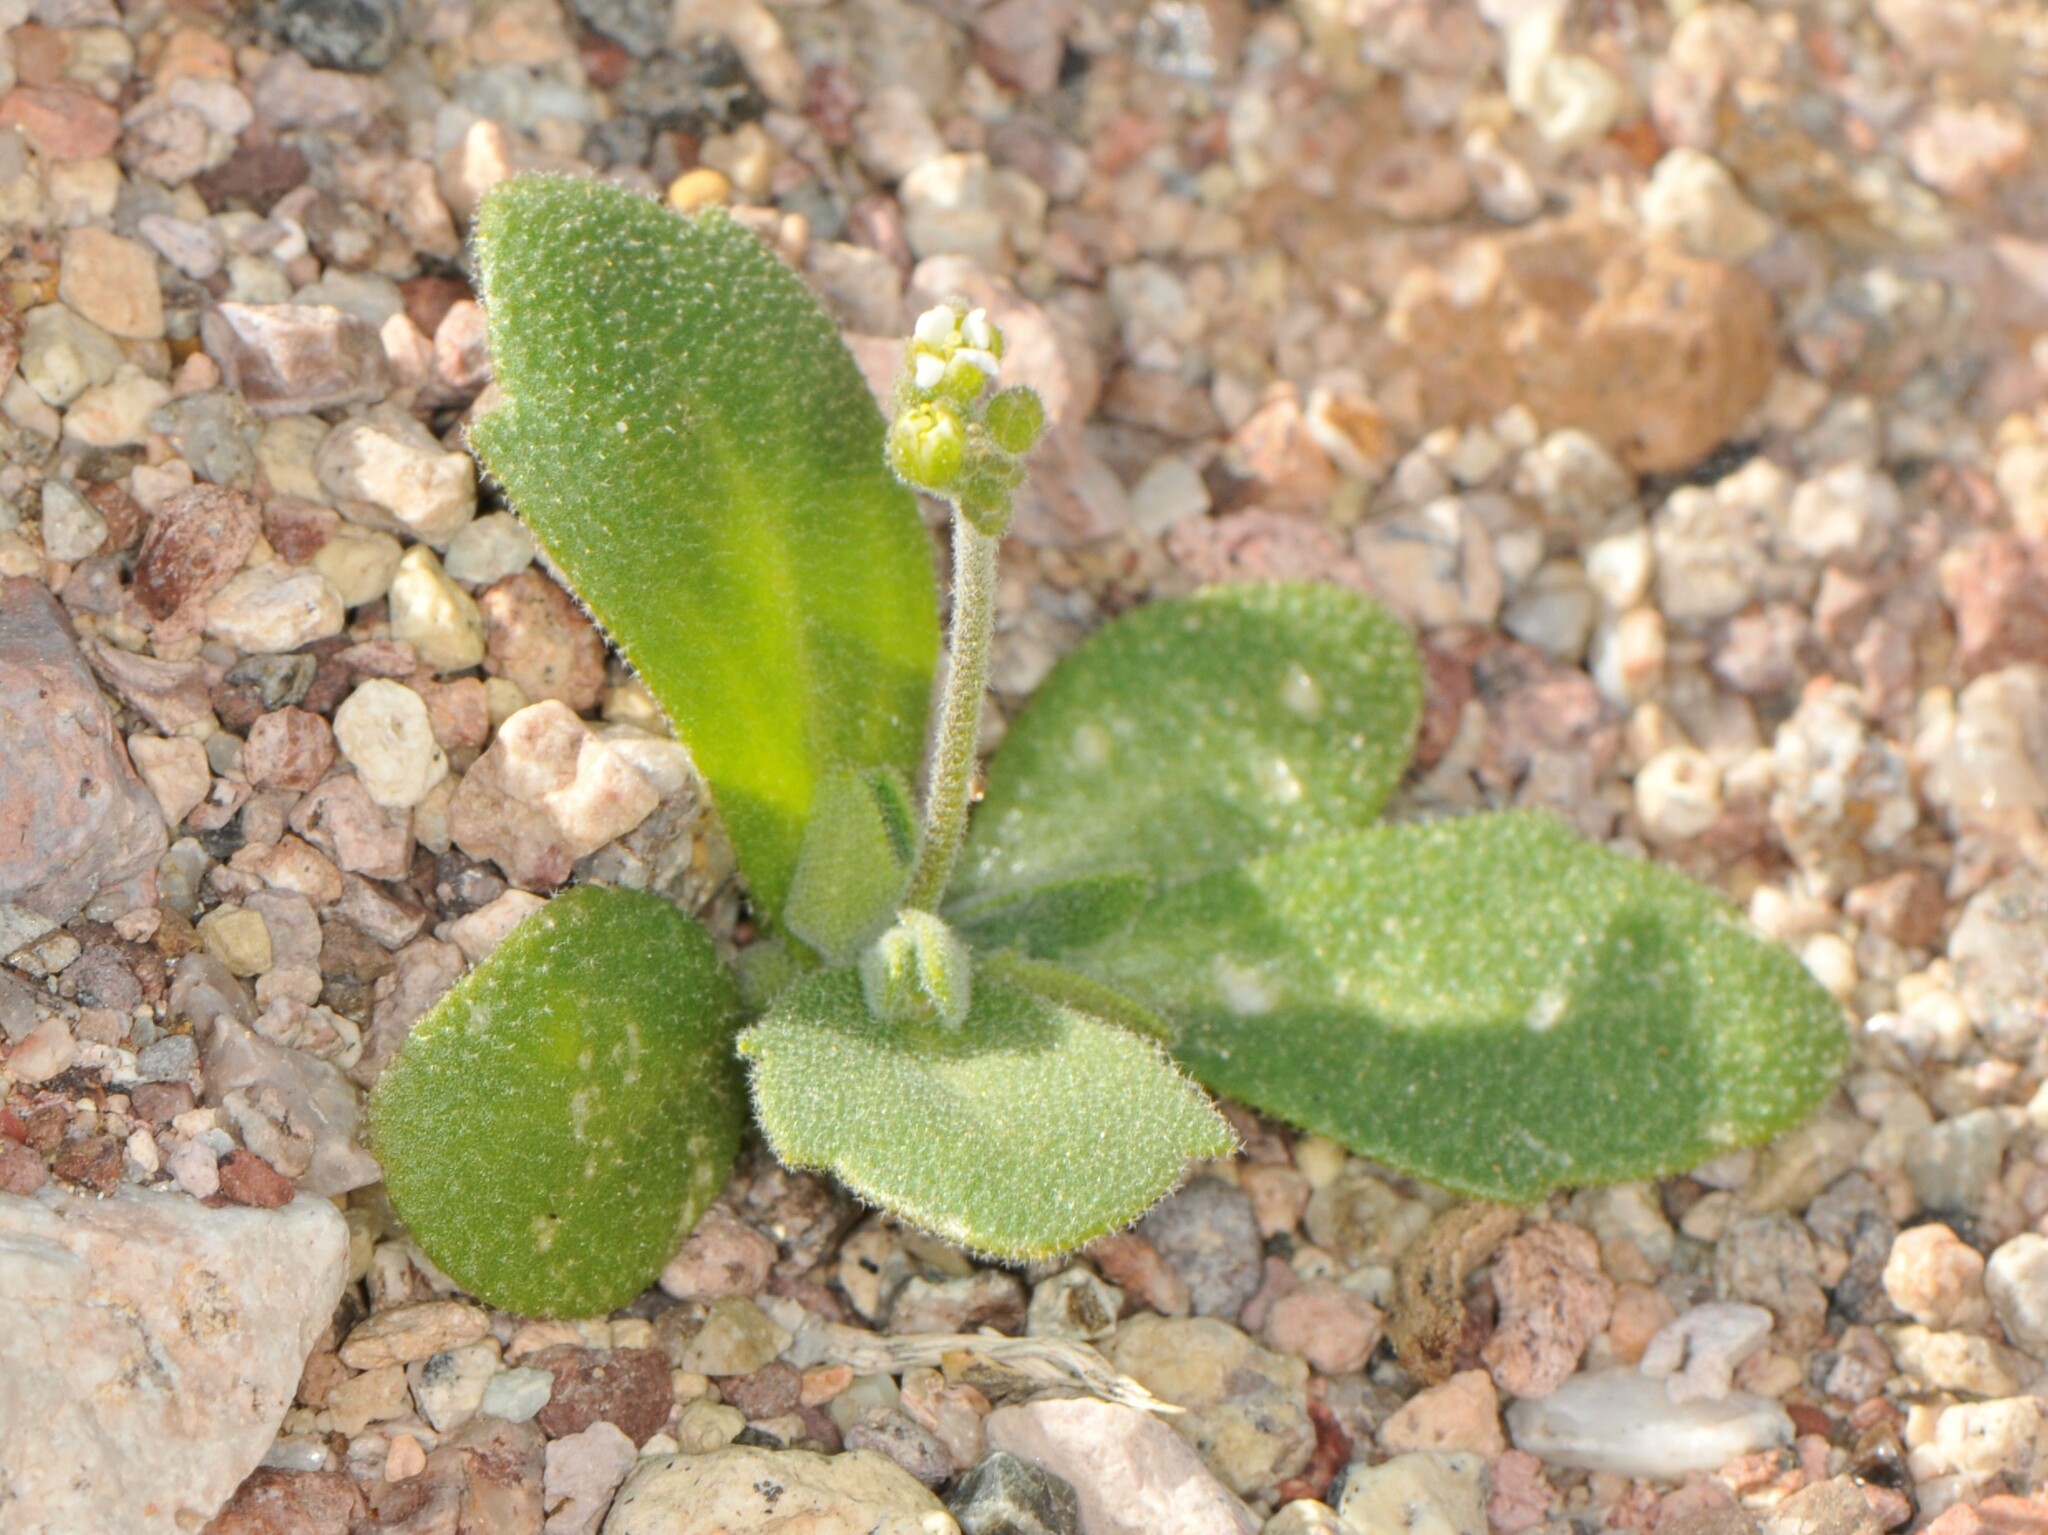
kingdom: Plantae
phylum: Tracheophyta
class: Magnoliopsida
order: Brassicales
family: Brassicaceae
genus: Tomostima
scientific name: Tomostima cuneifolia
